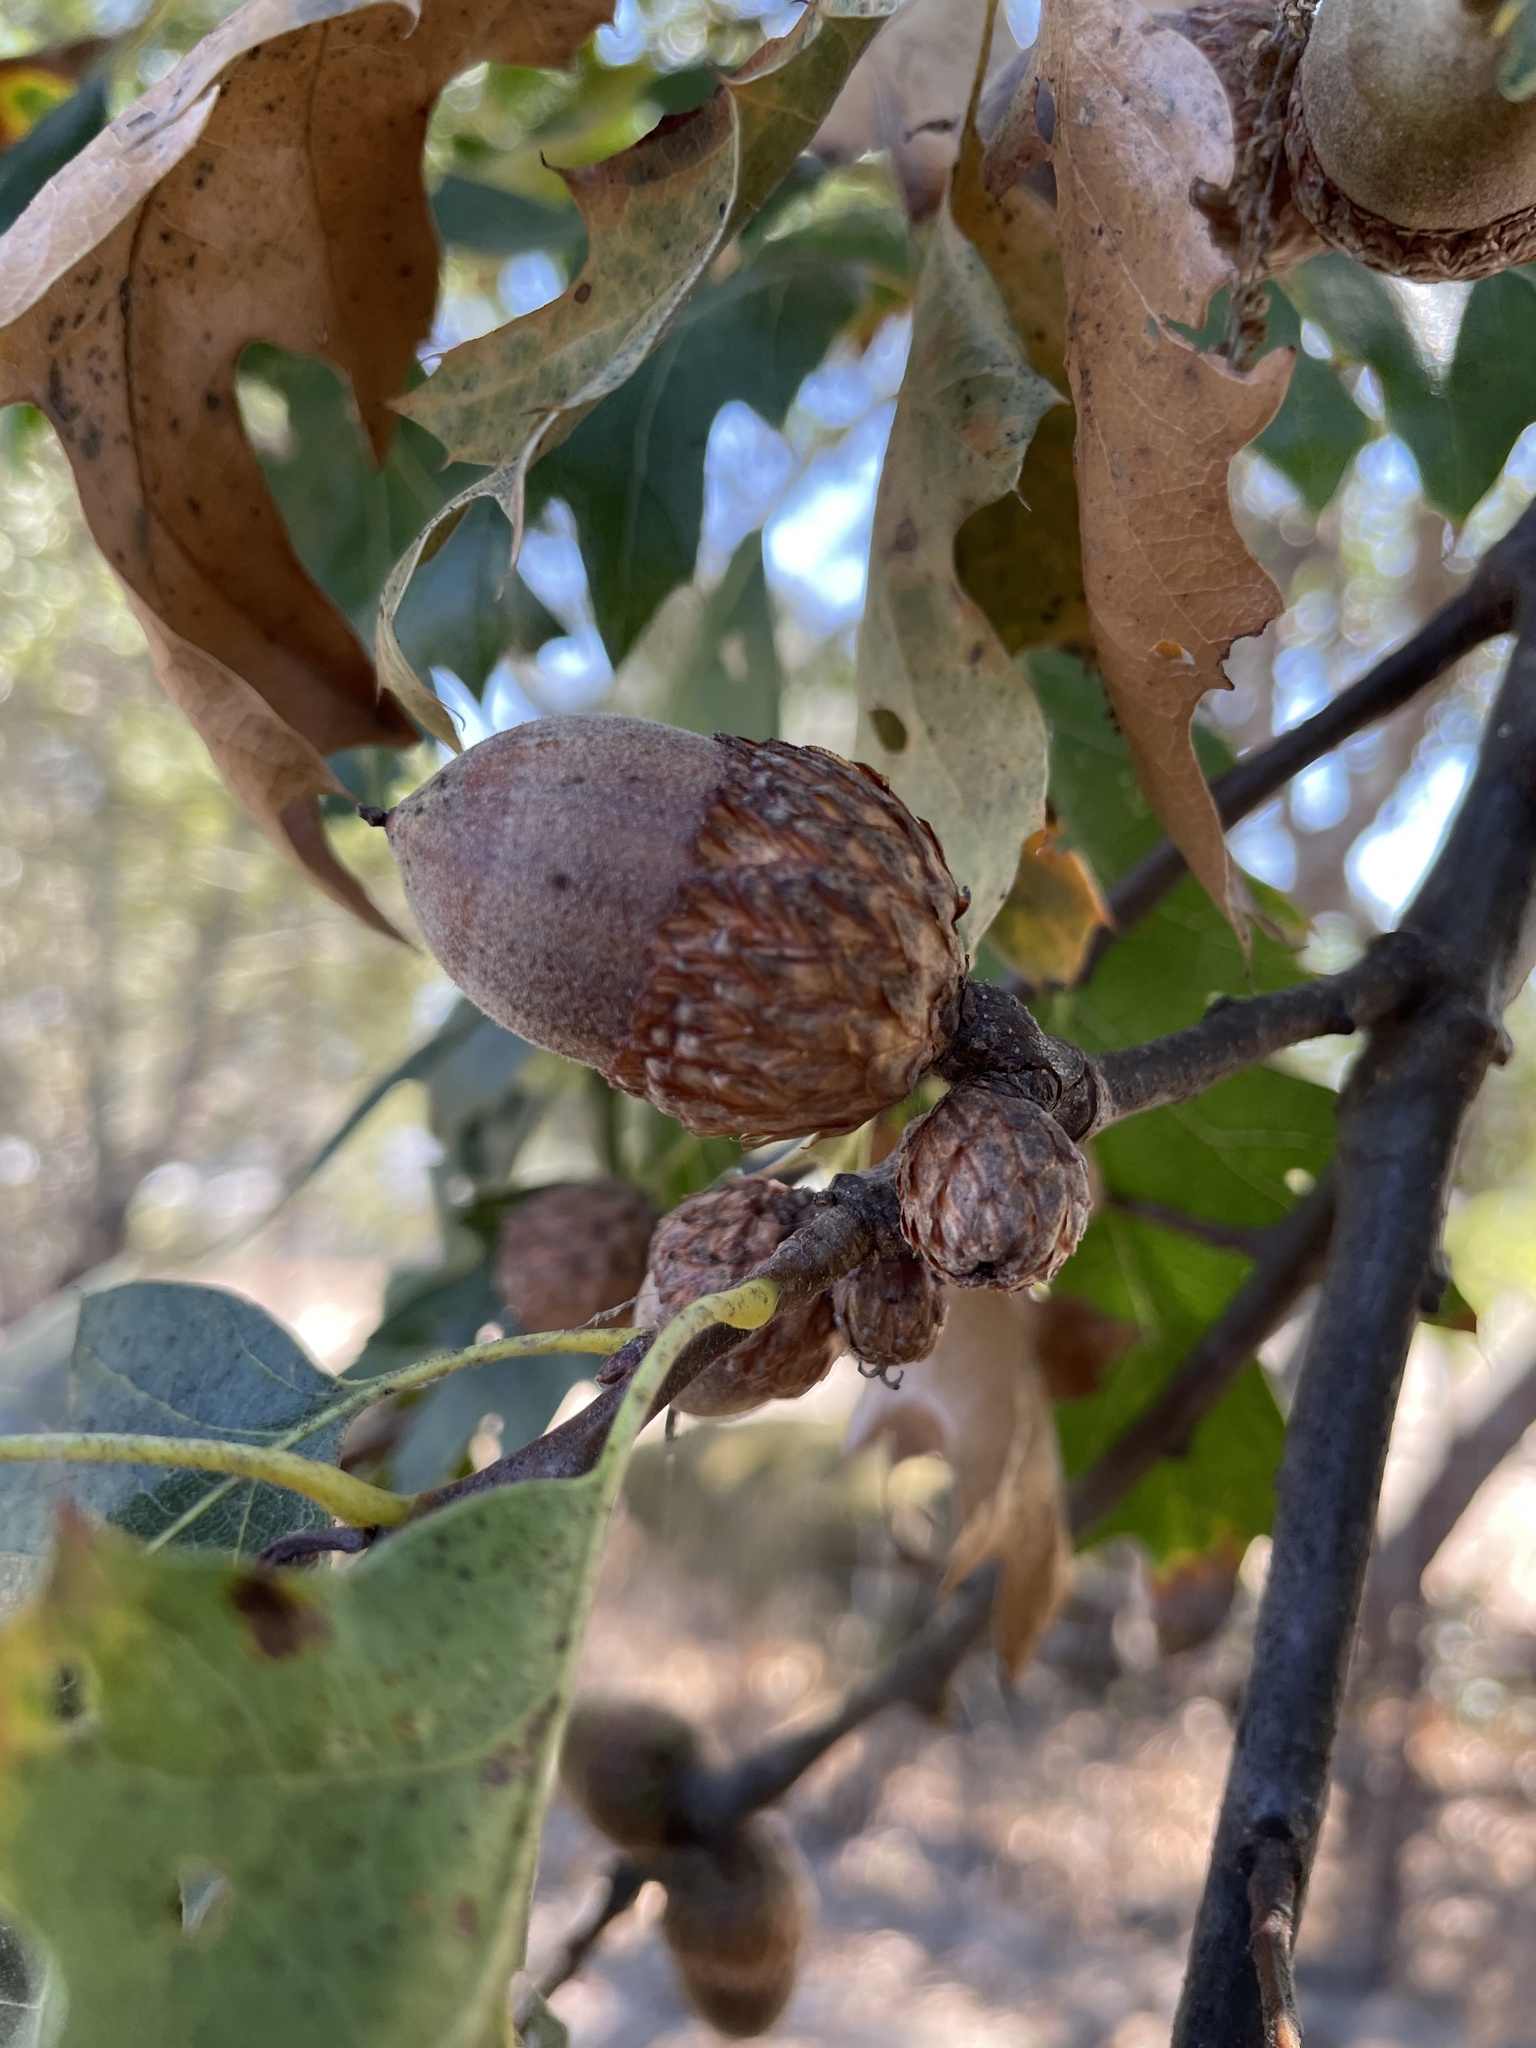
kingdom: Plantae
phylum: Tracheophyta
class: Magnoliopsida
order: Fagales
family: Fagaceae
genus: Quercus
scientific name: Quercus kelloggii
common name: California black oak
